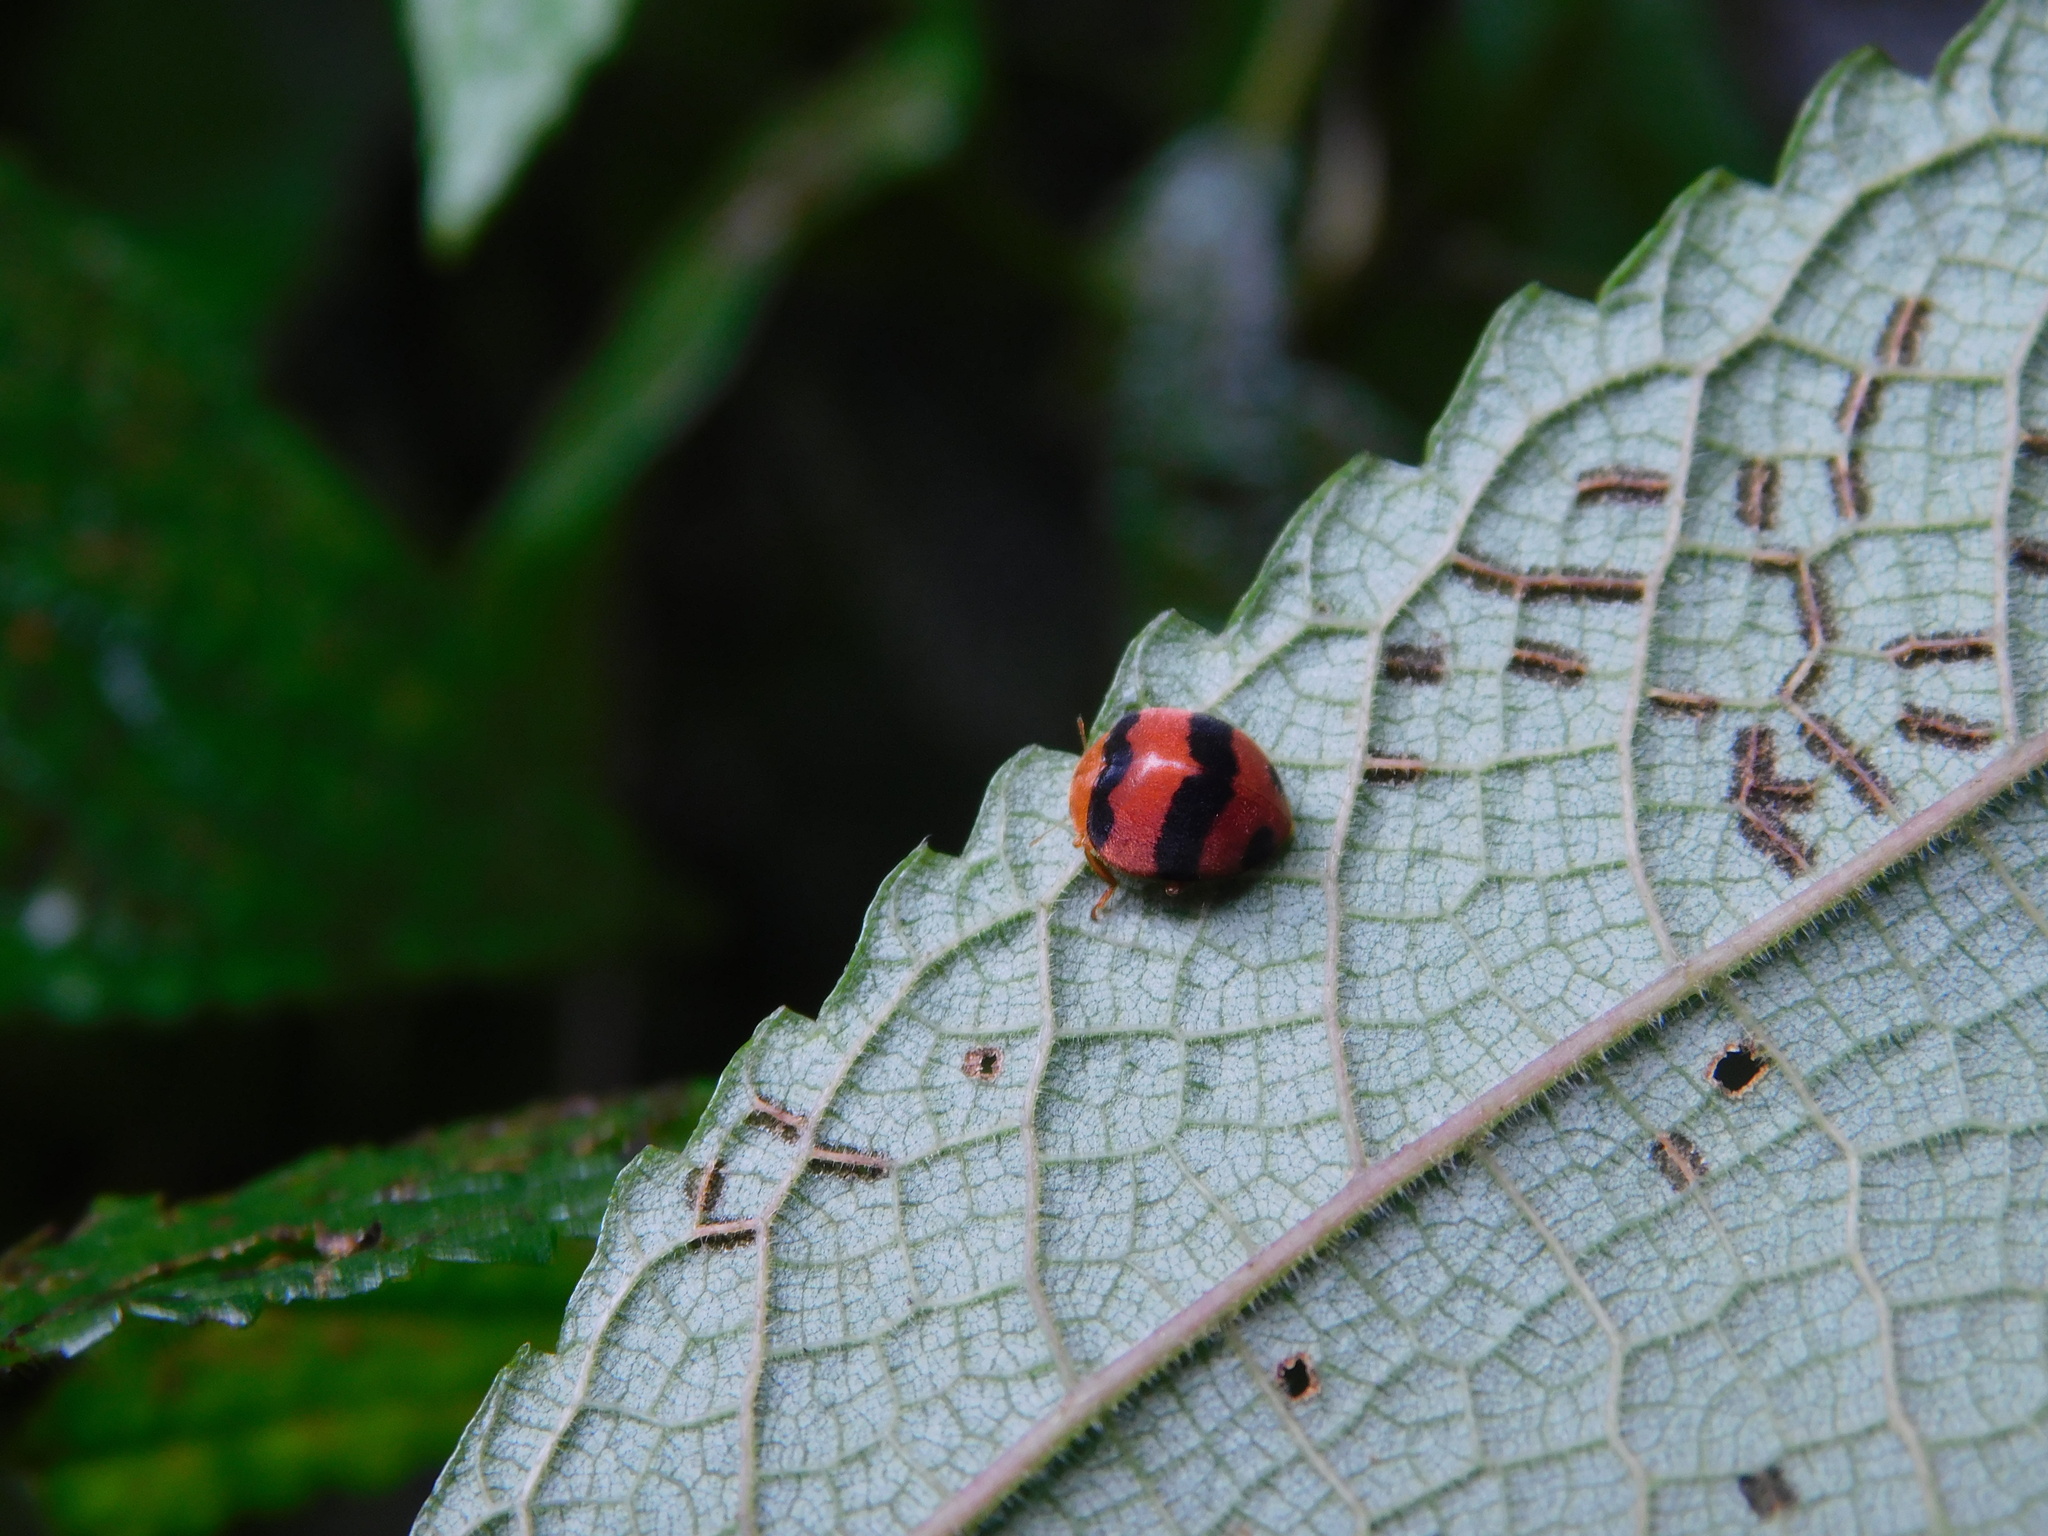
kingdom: Animalia
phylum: Arthropoda
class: Insecta
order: Coleoptera
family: Coccinellidae
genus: Afissa
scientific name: Afissa
